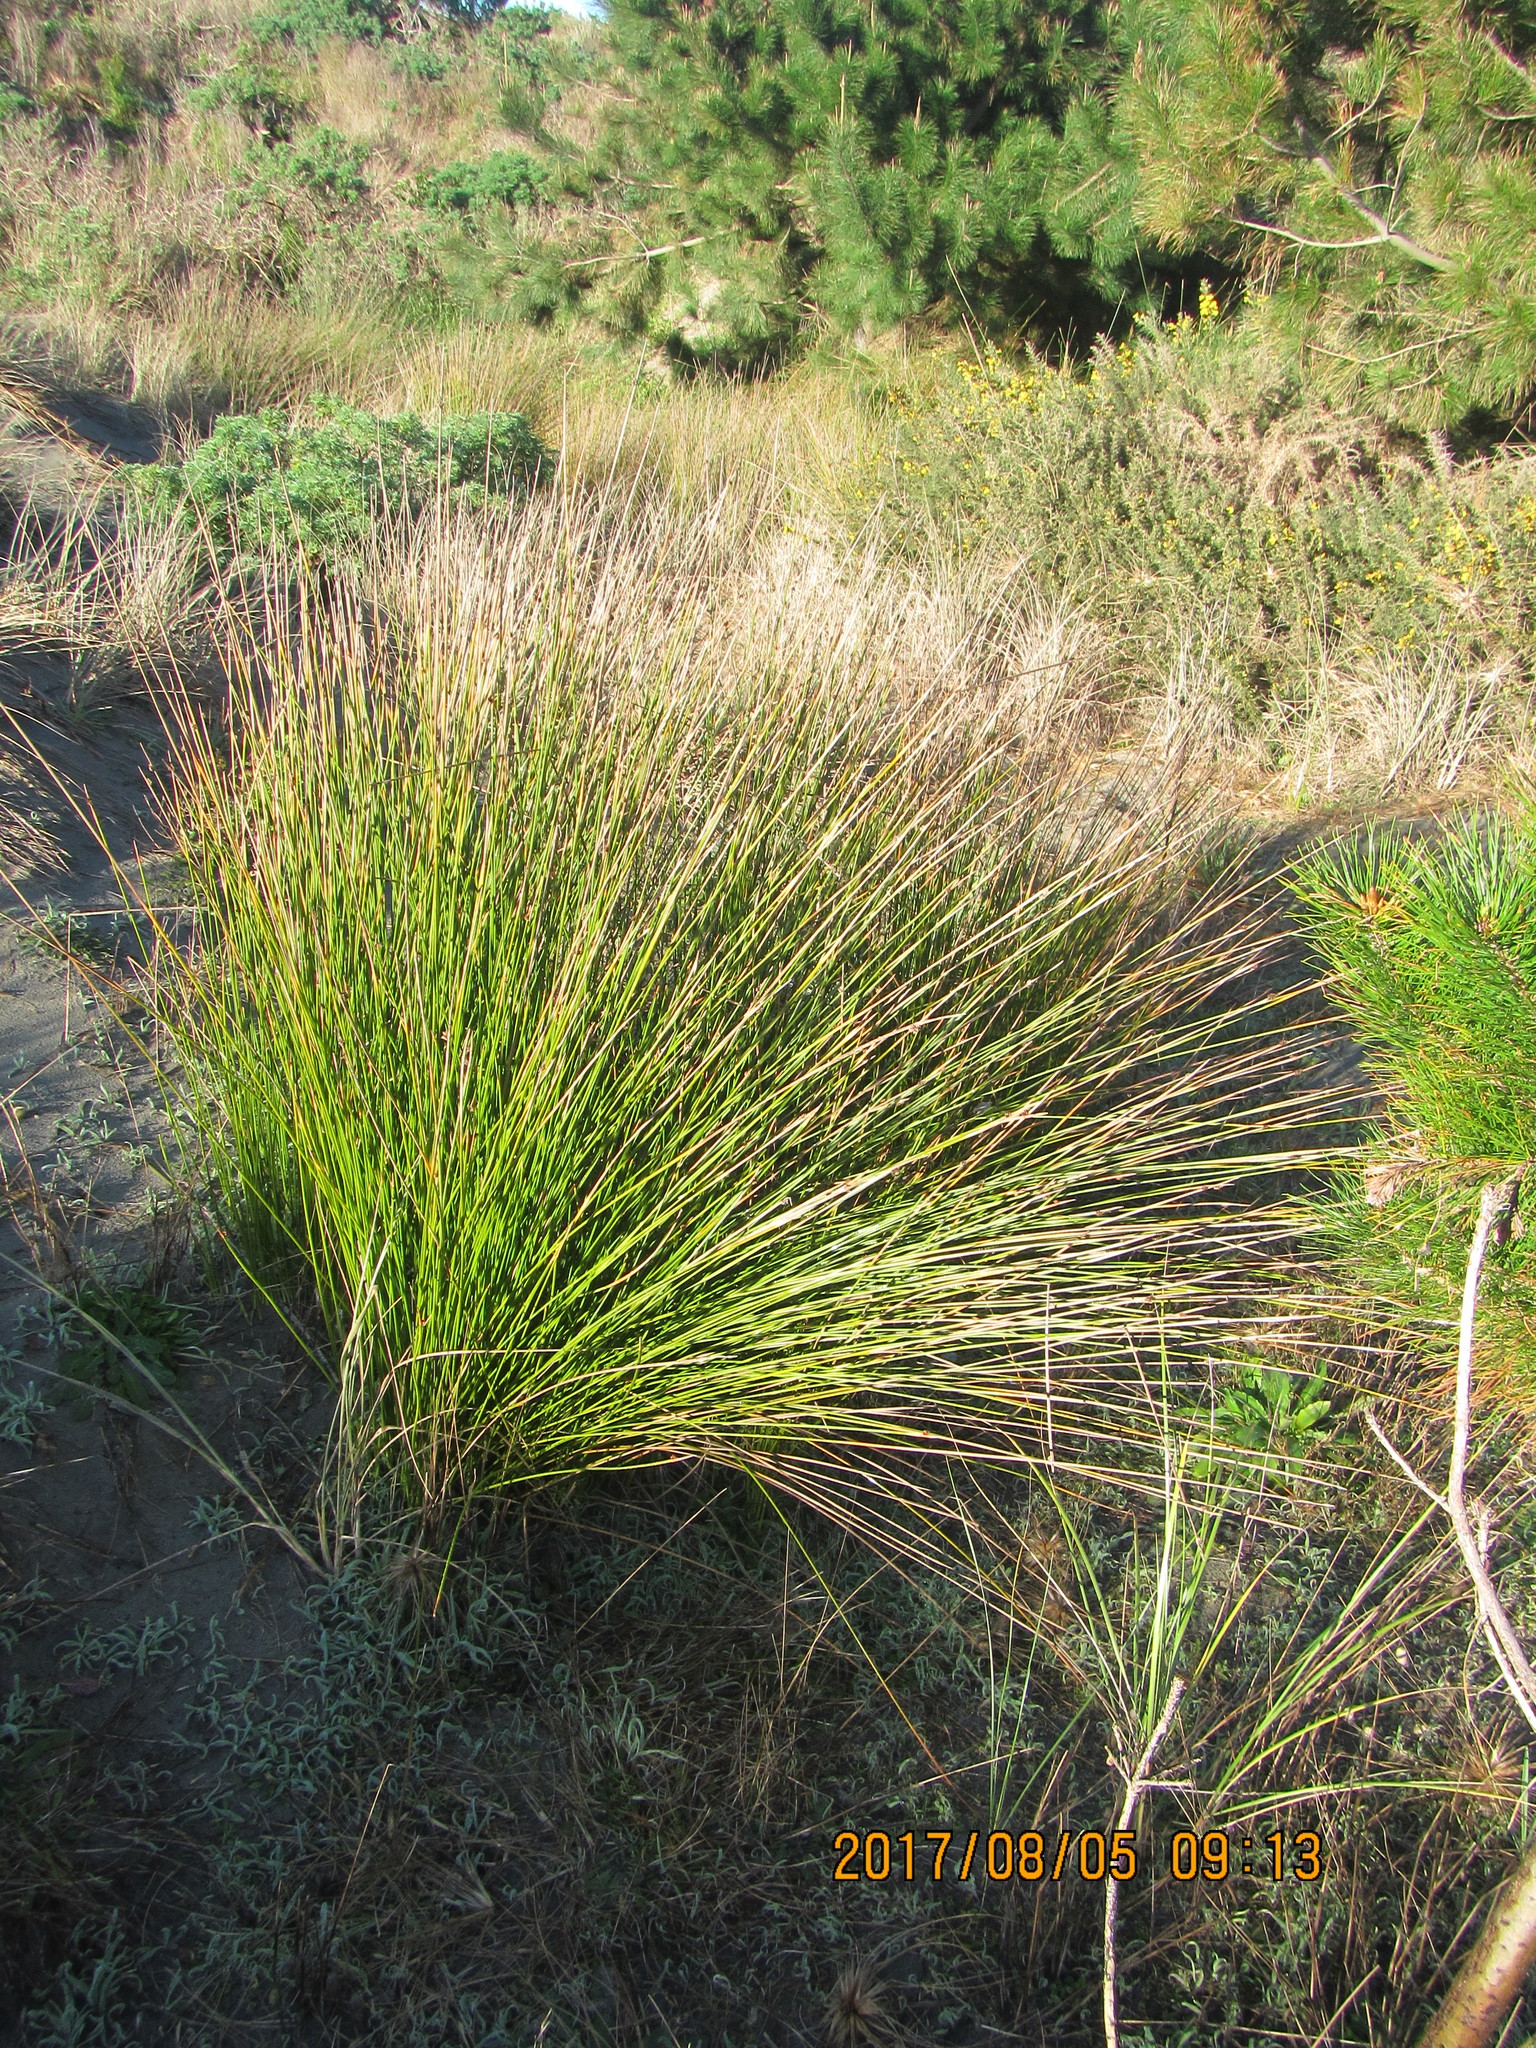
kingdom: Plantae
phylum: Tracheophyta
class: Liliopsida
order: Poales
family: Cyperaceae
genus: Ficinia
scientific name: Ficinia nodosa
